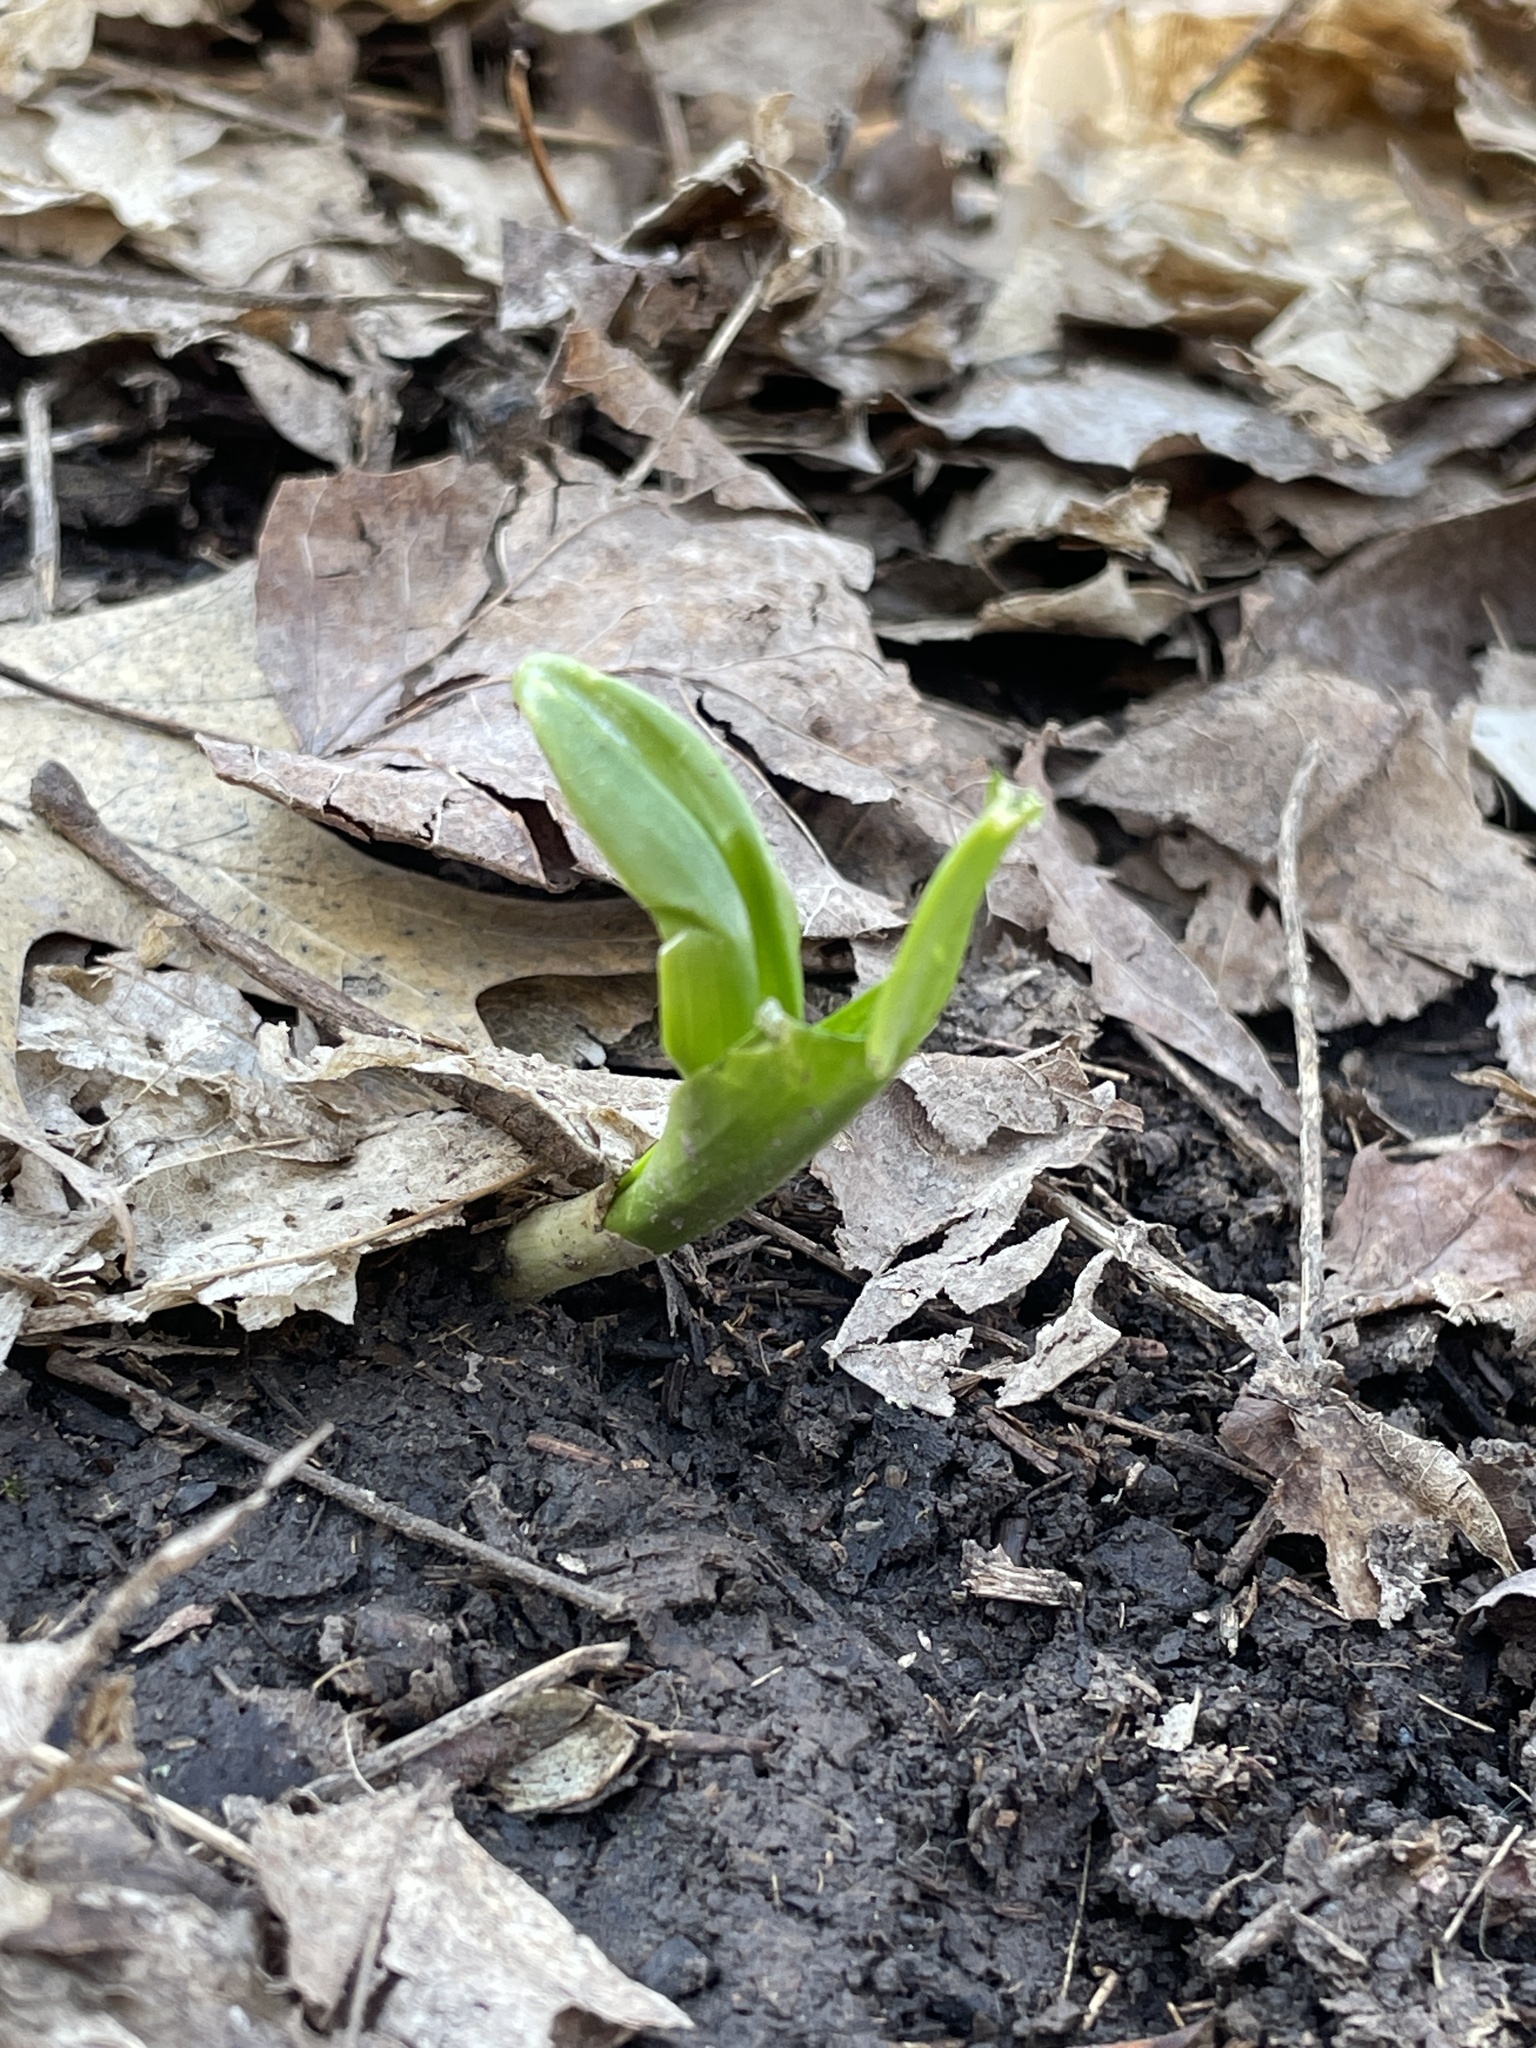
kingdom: Plantae
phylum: Tracheophyta
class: Liliopsida
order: Asparagales
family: Amaryllidaceae
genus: Allium
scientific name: Allium tricoccum
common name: Ramp
